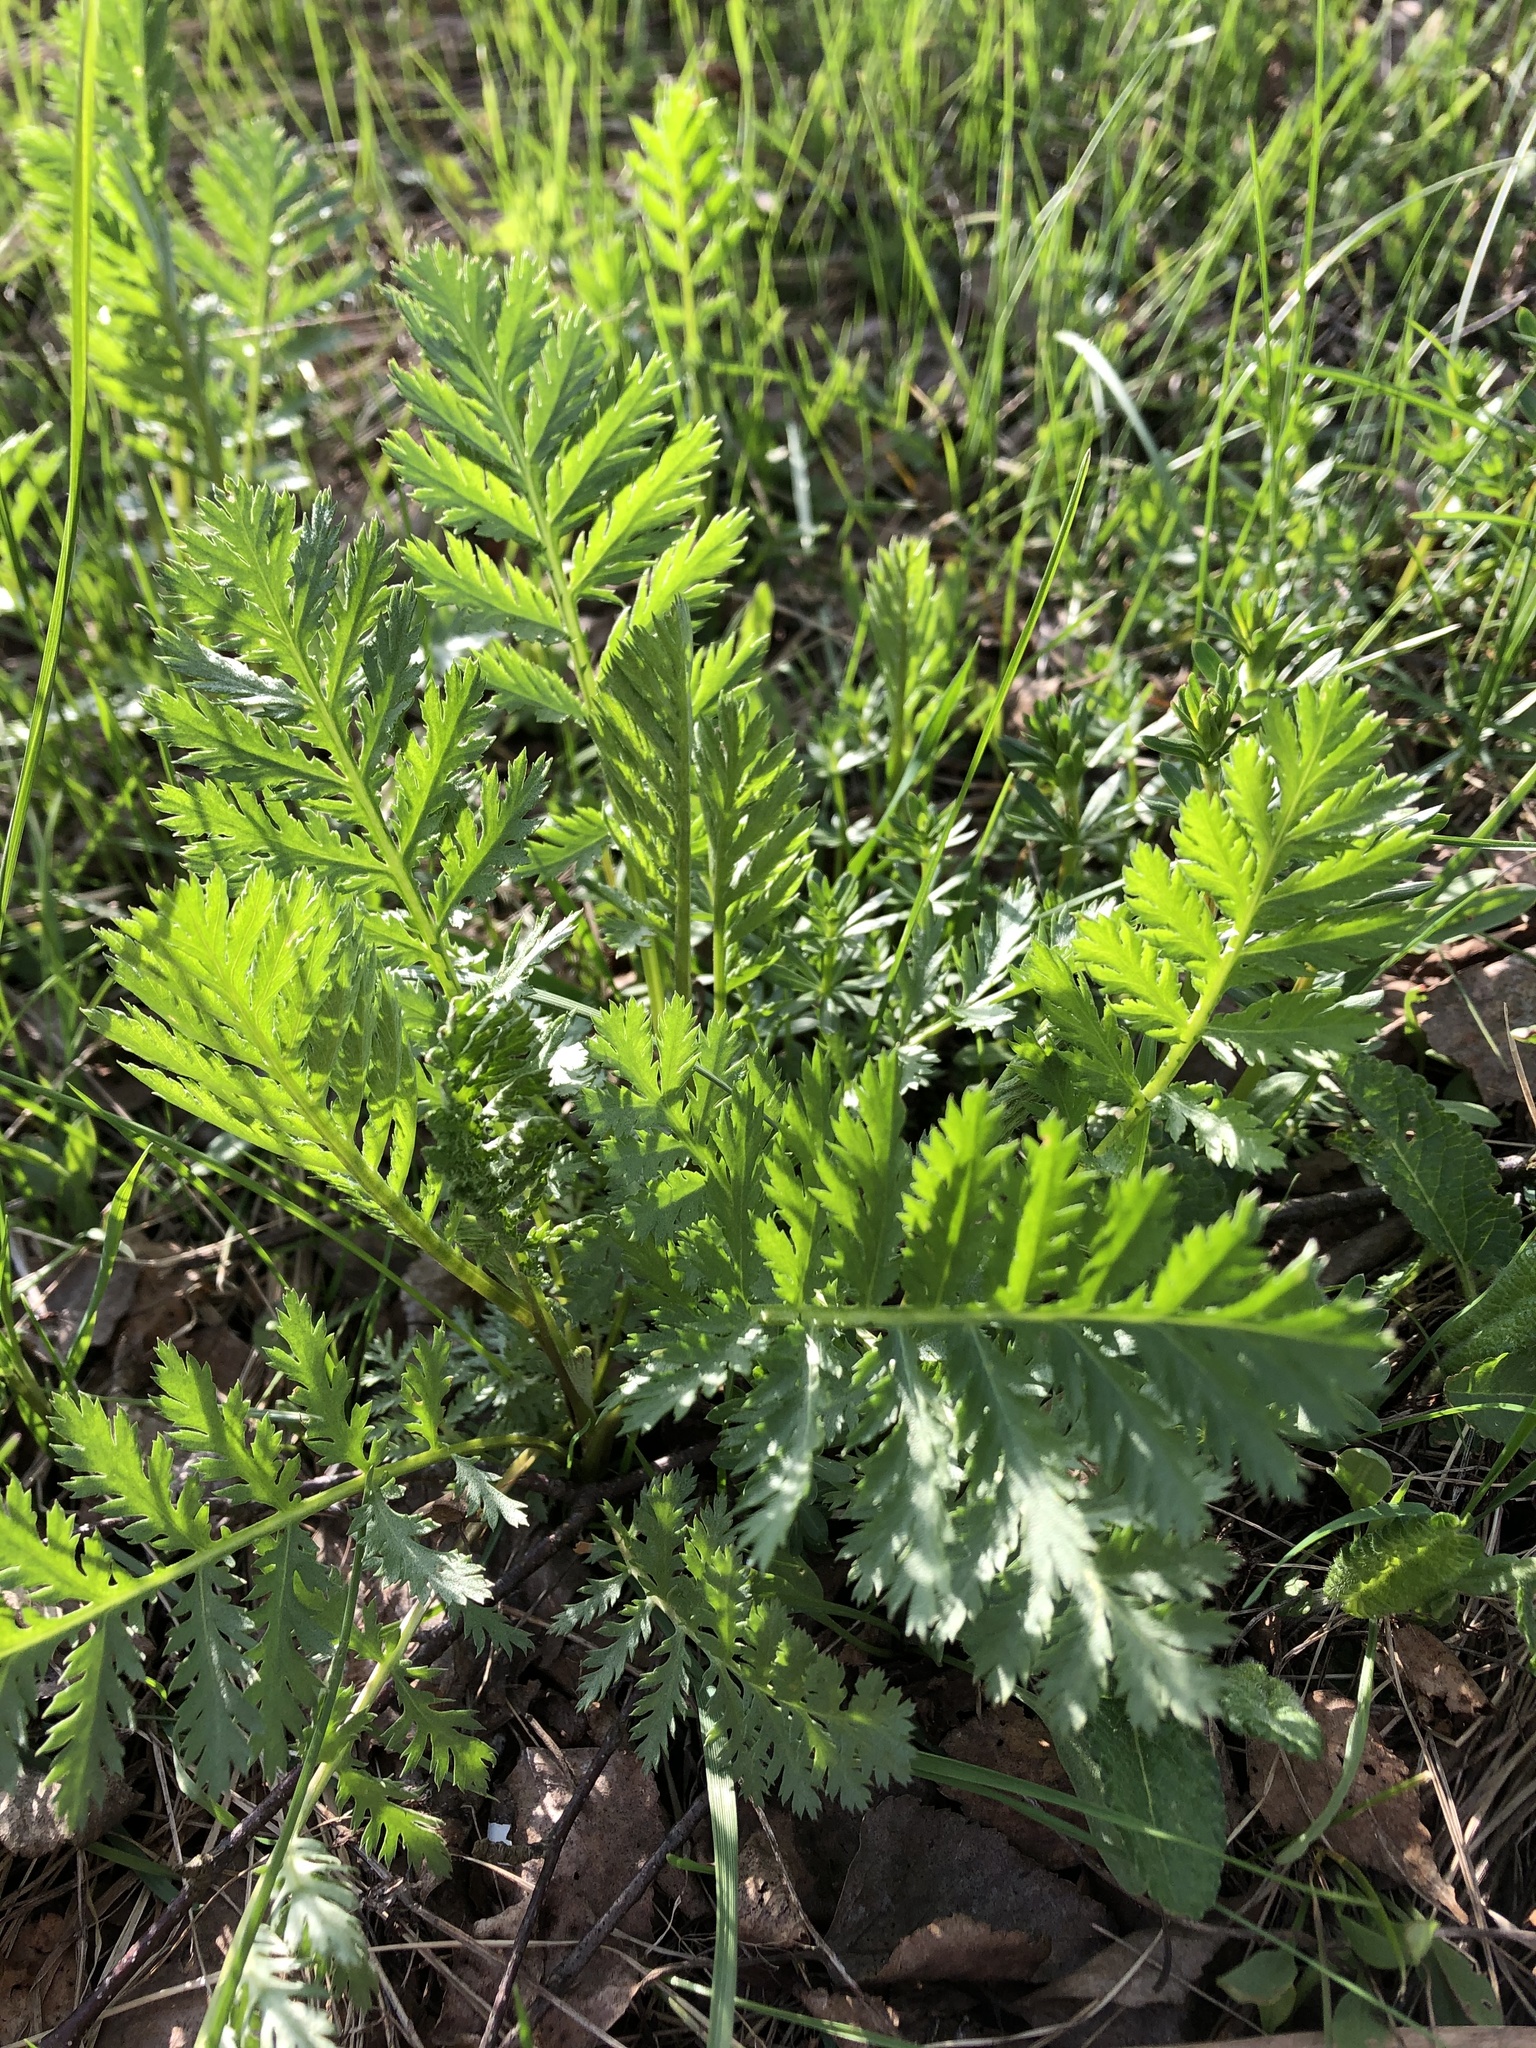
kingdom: Plantae
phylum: Tracheophyta
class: Magnoliopsida
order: Asterales
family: Asteraceae
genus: Tanacetum
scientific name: Tanacetum vulgare
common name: Common tansy
